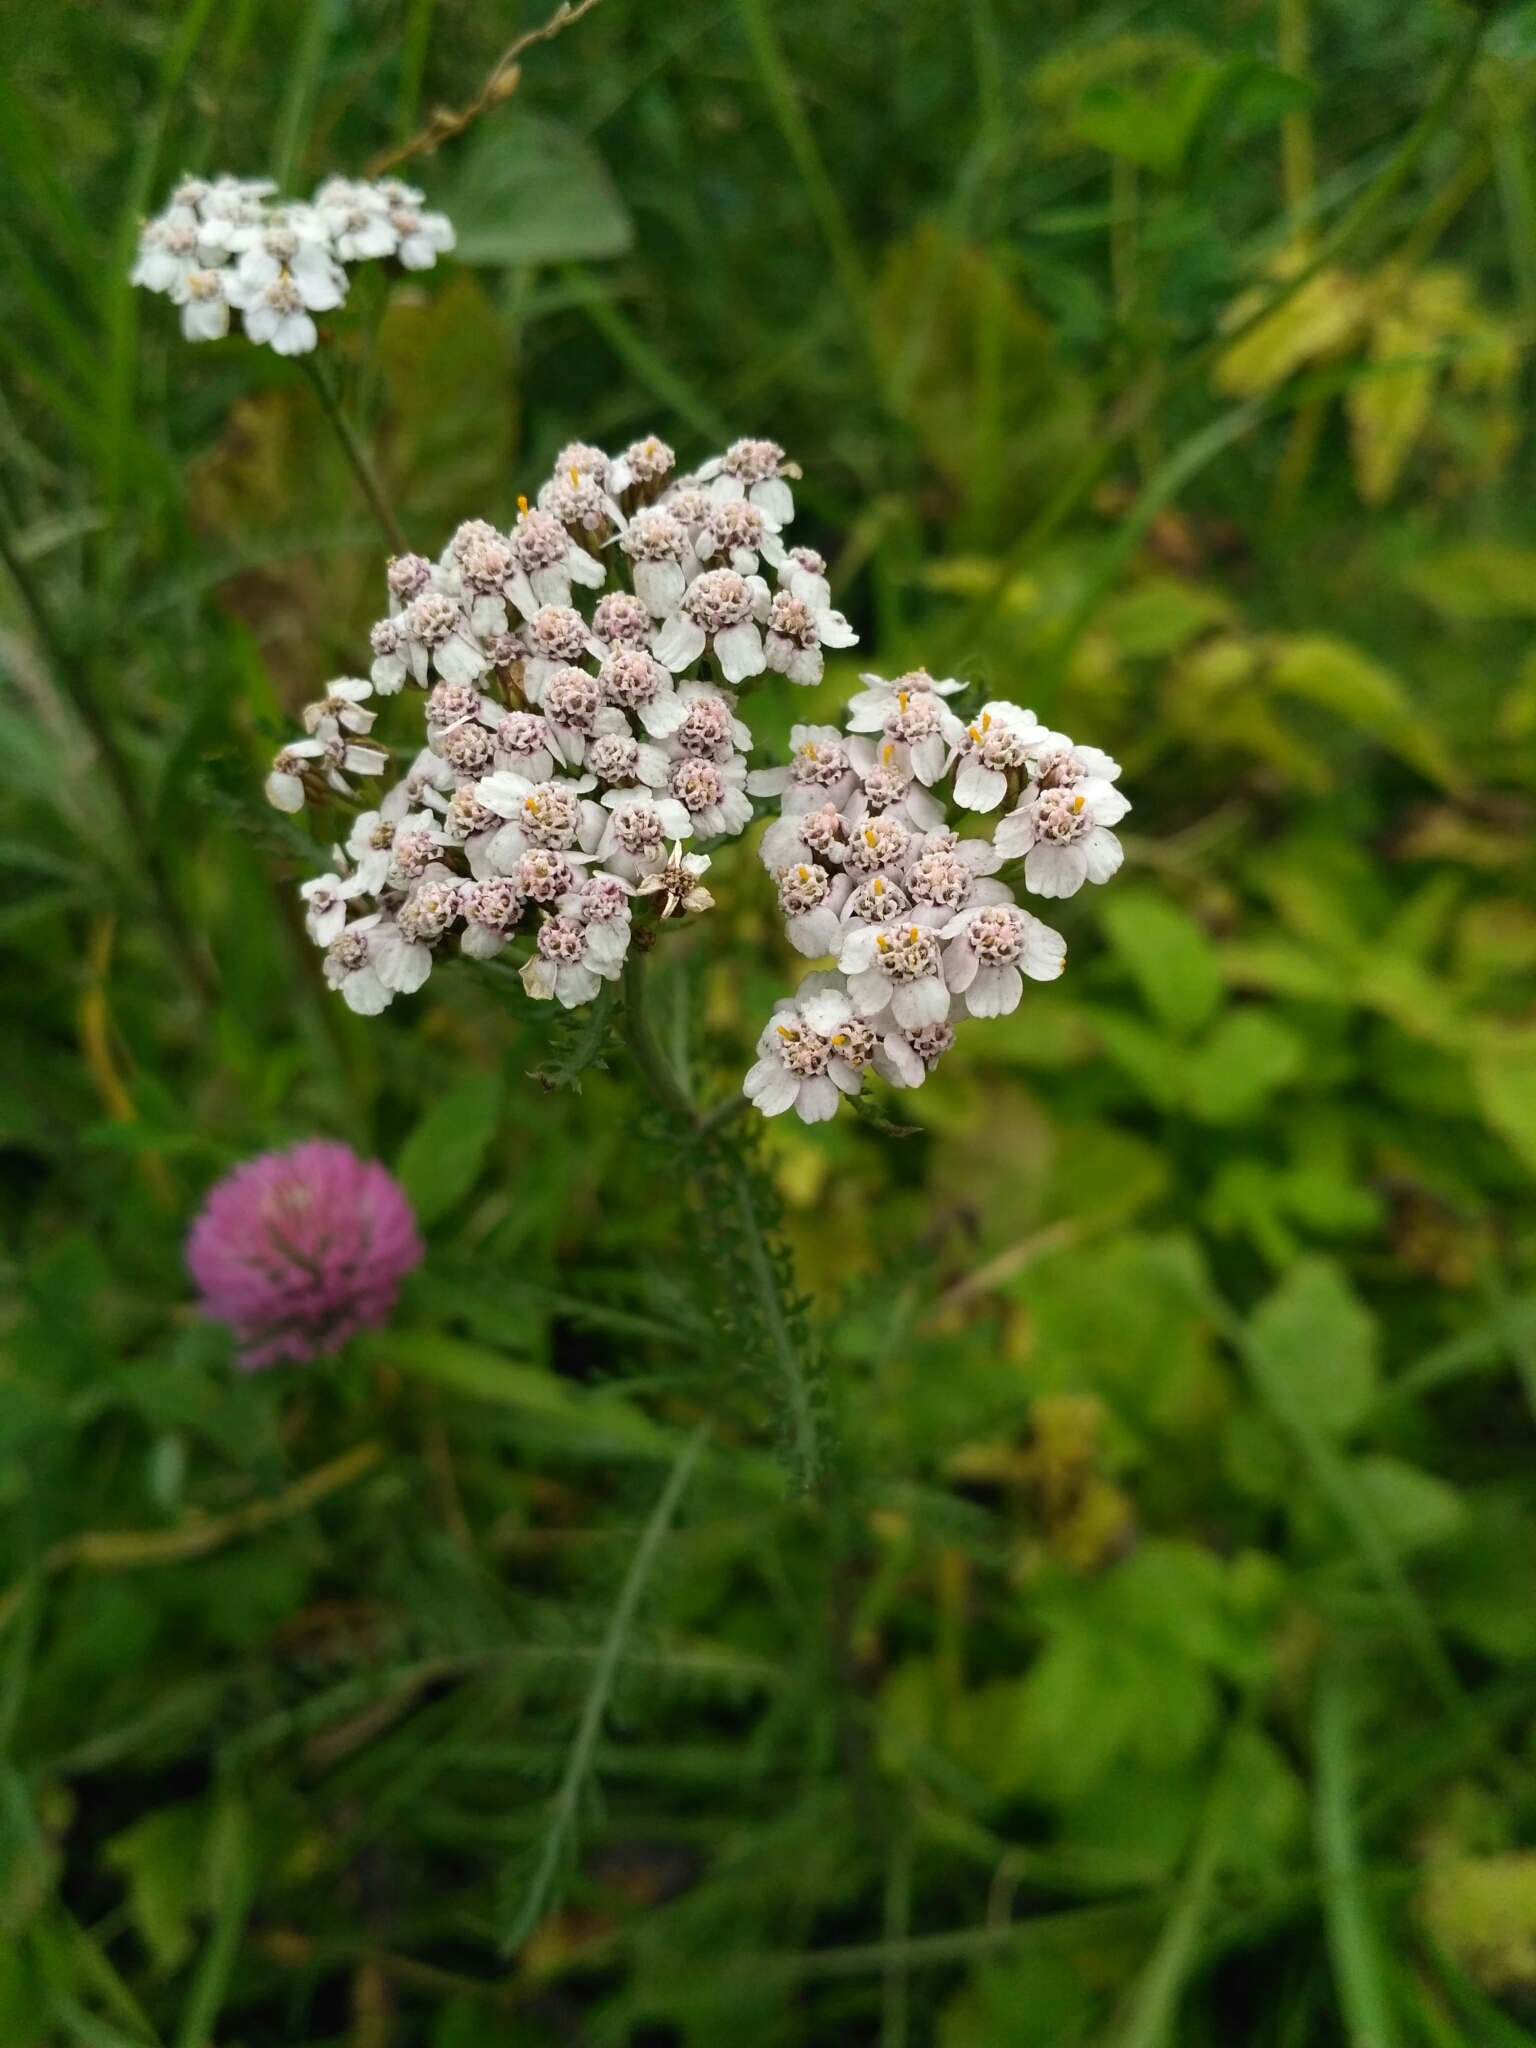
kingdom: Plantae
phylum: Tracheophyta
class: Magnoliopsida
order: Asterales
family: Asteraceae
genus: Achillea
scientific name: Achillea millefolium
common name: Yarrow
